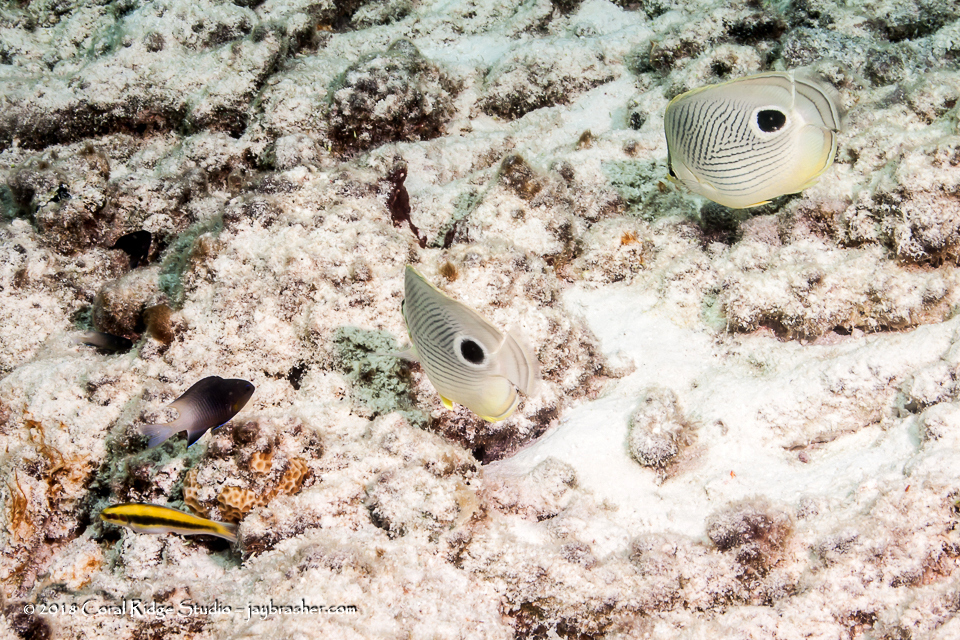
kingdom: Animalia
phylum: Chordata
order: Perciformes
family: Chaetodontidae
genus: Chaetodon
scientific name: Chaetodon capistratus
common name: Kete
